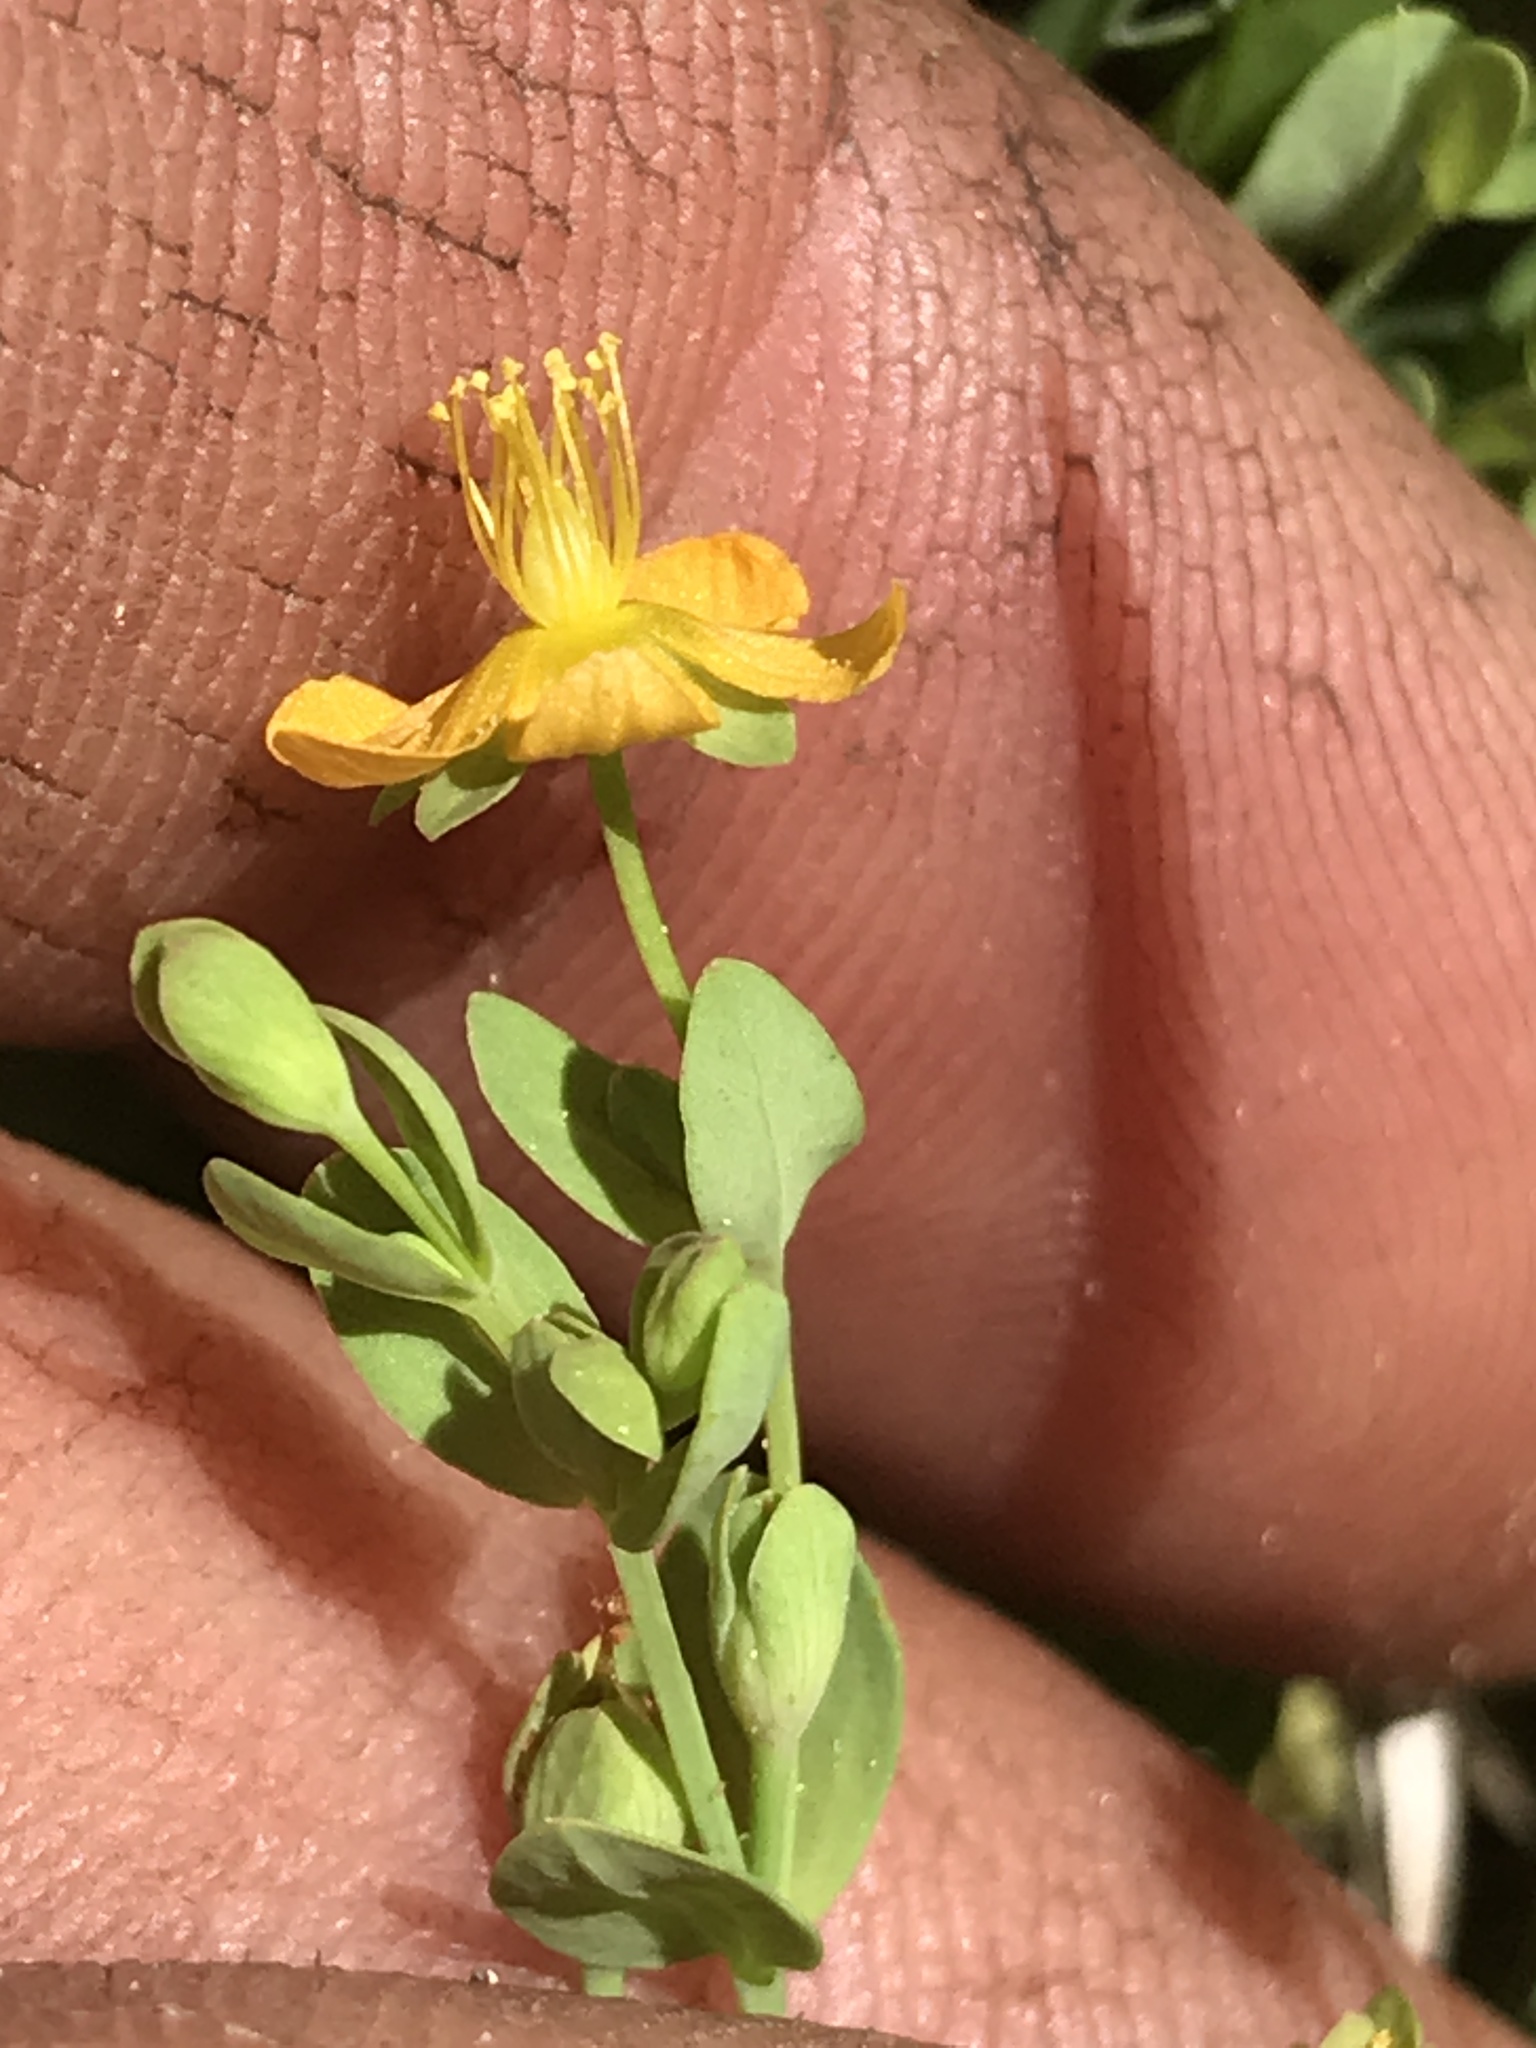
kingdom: Plantae
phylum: Tracheophyta
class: Magnoliopsida
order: Malpighiales
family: Hypericaceae
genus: Hypericum
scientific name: Hypericum anagalloides
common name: Bog st. john's-wort
